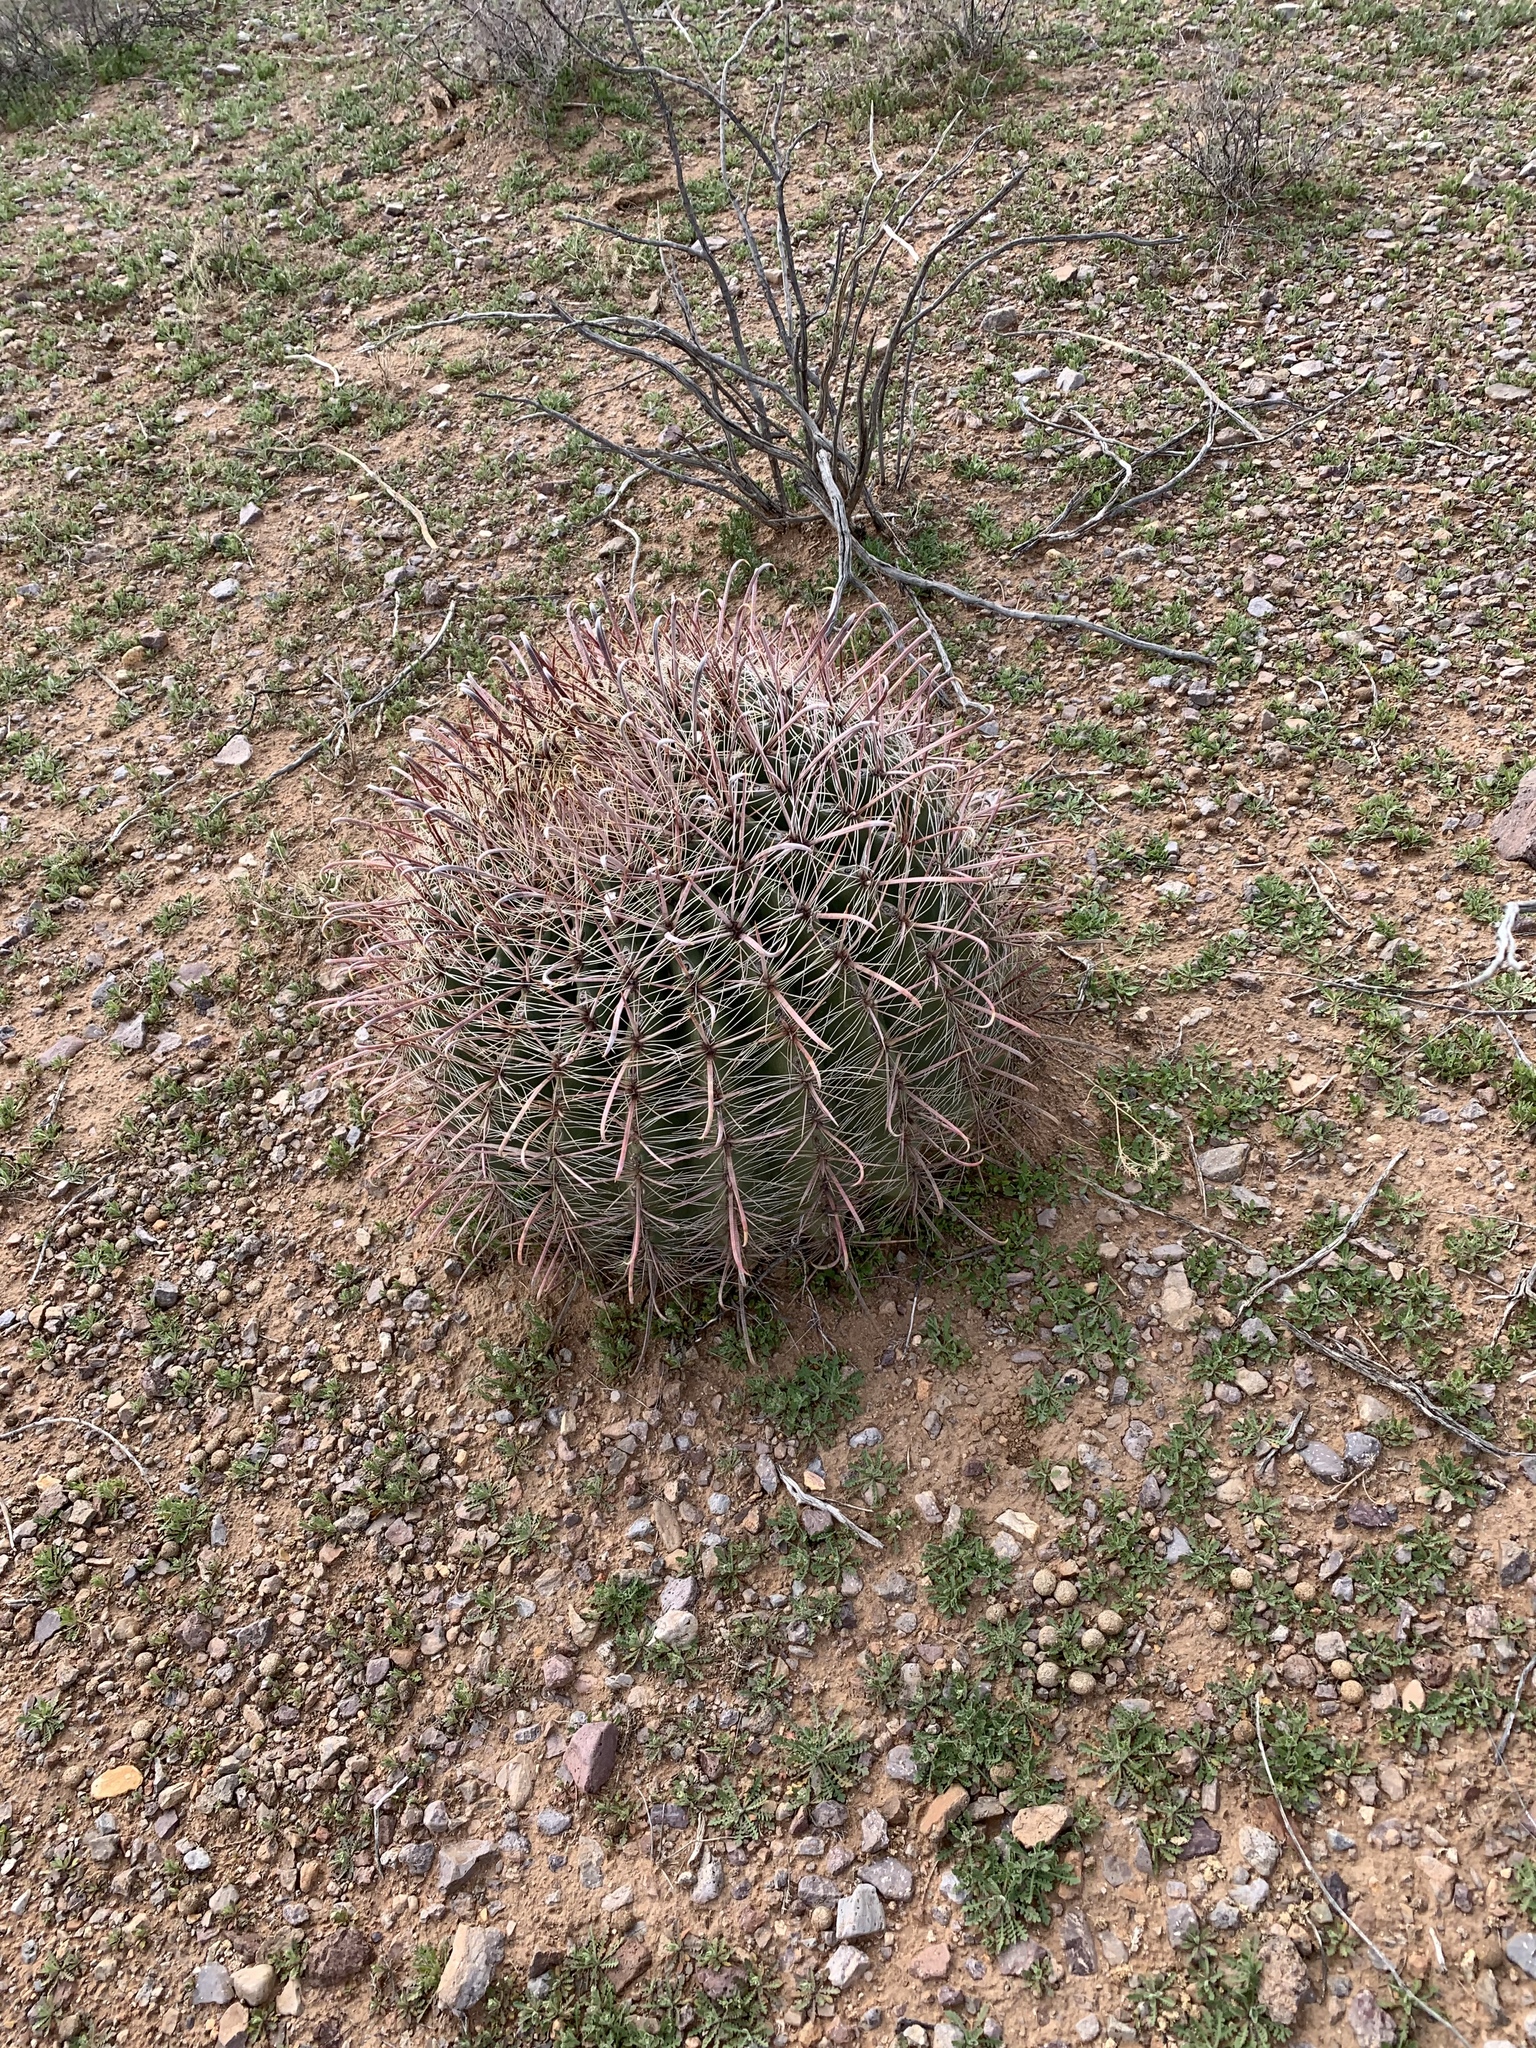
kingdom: Plantae
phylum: Tracheophyta
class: Magnoliopsida
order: Caryophyllales
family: Cactaceae
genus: Ferocactus
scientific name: Ferocactus wislizeni
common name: Candy barrel cactus
